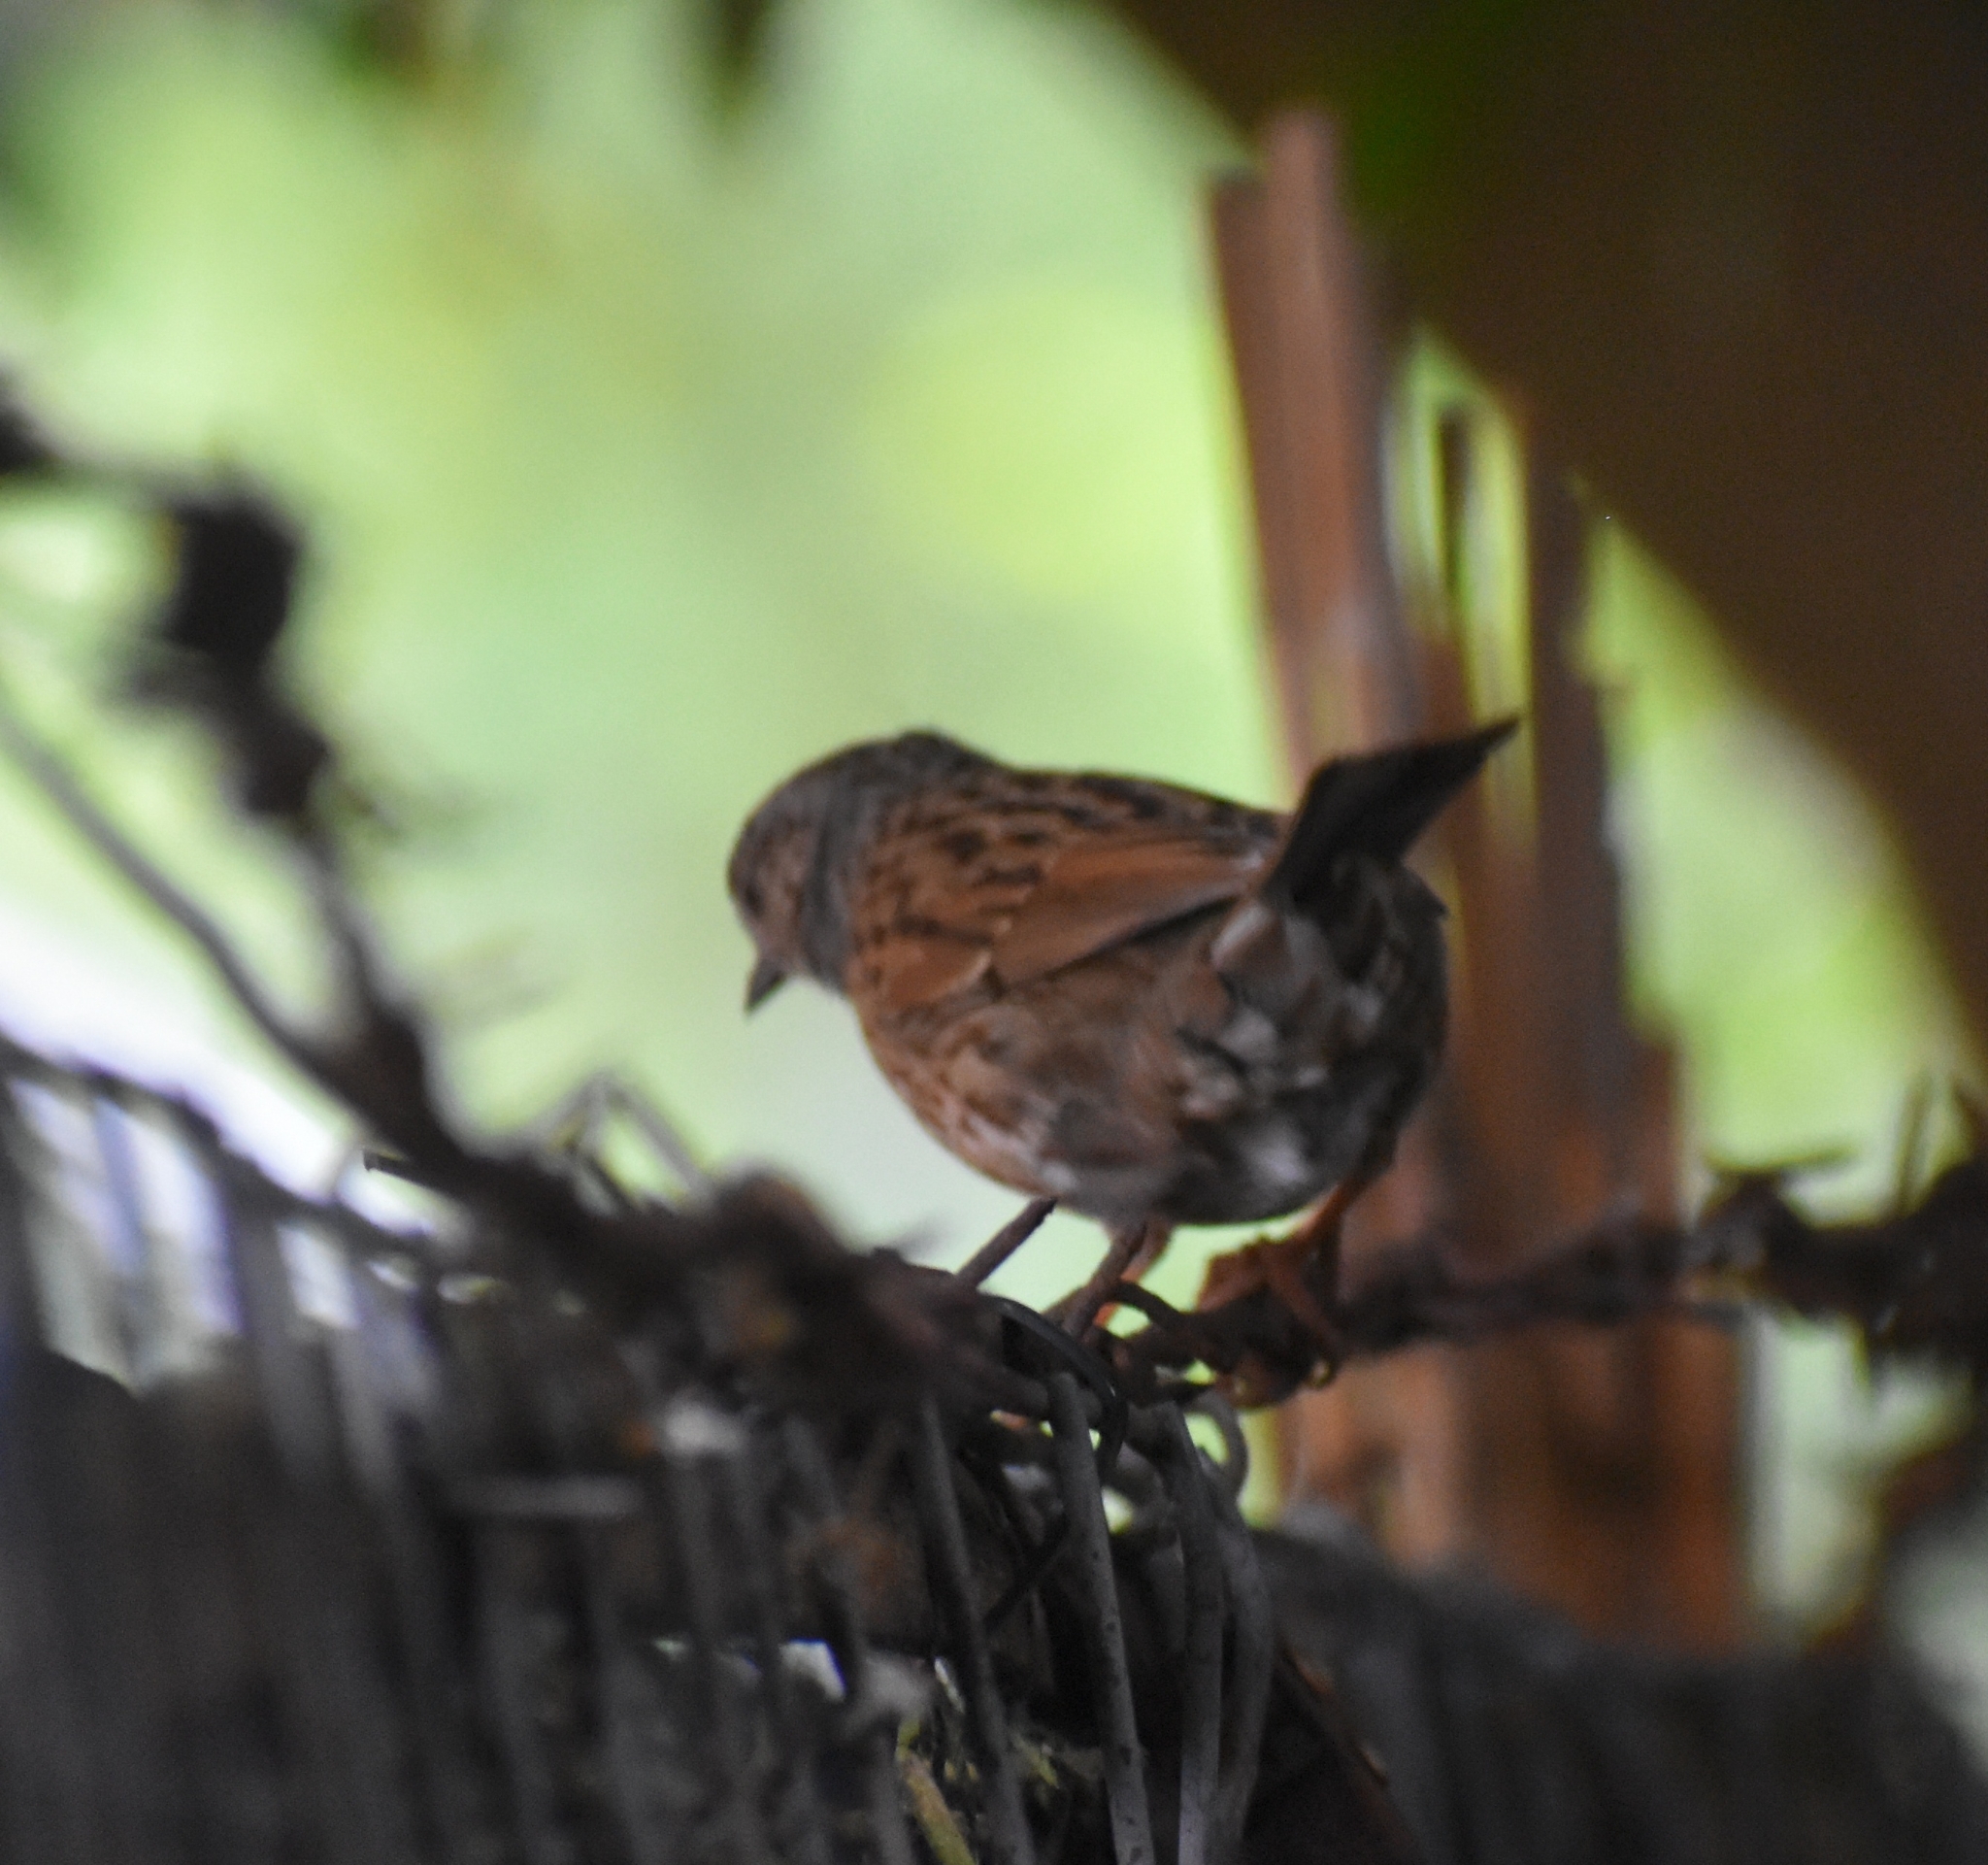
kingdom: Animalia
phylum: Chordata
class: Aves
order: Passeriformes
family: Prunellidae
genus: Prunella
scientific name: Prunella modularis
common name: Dunnock
